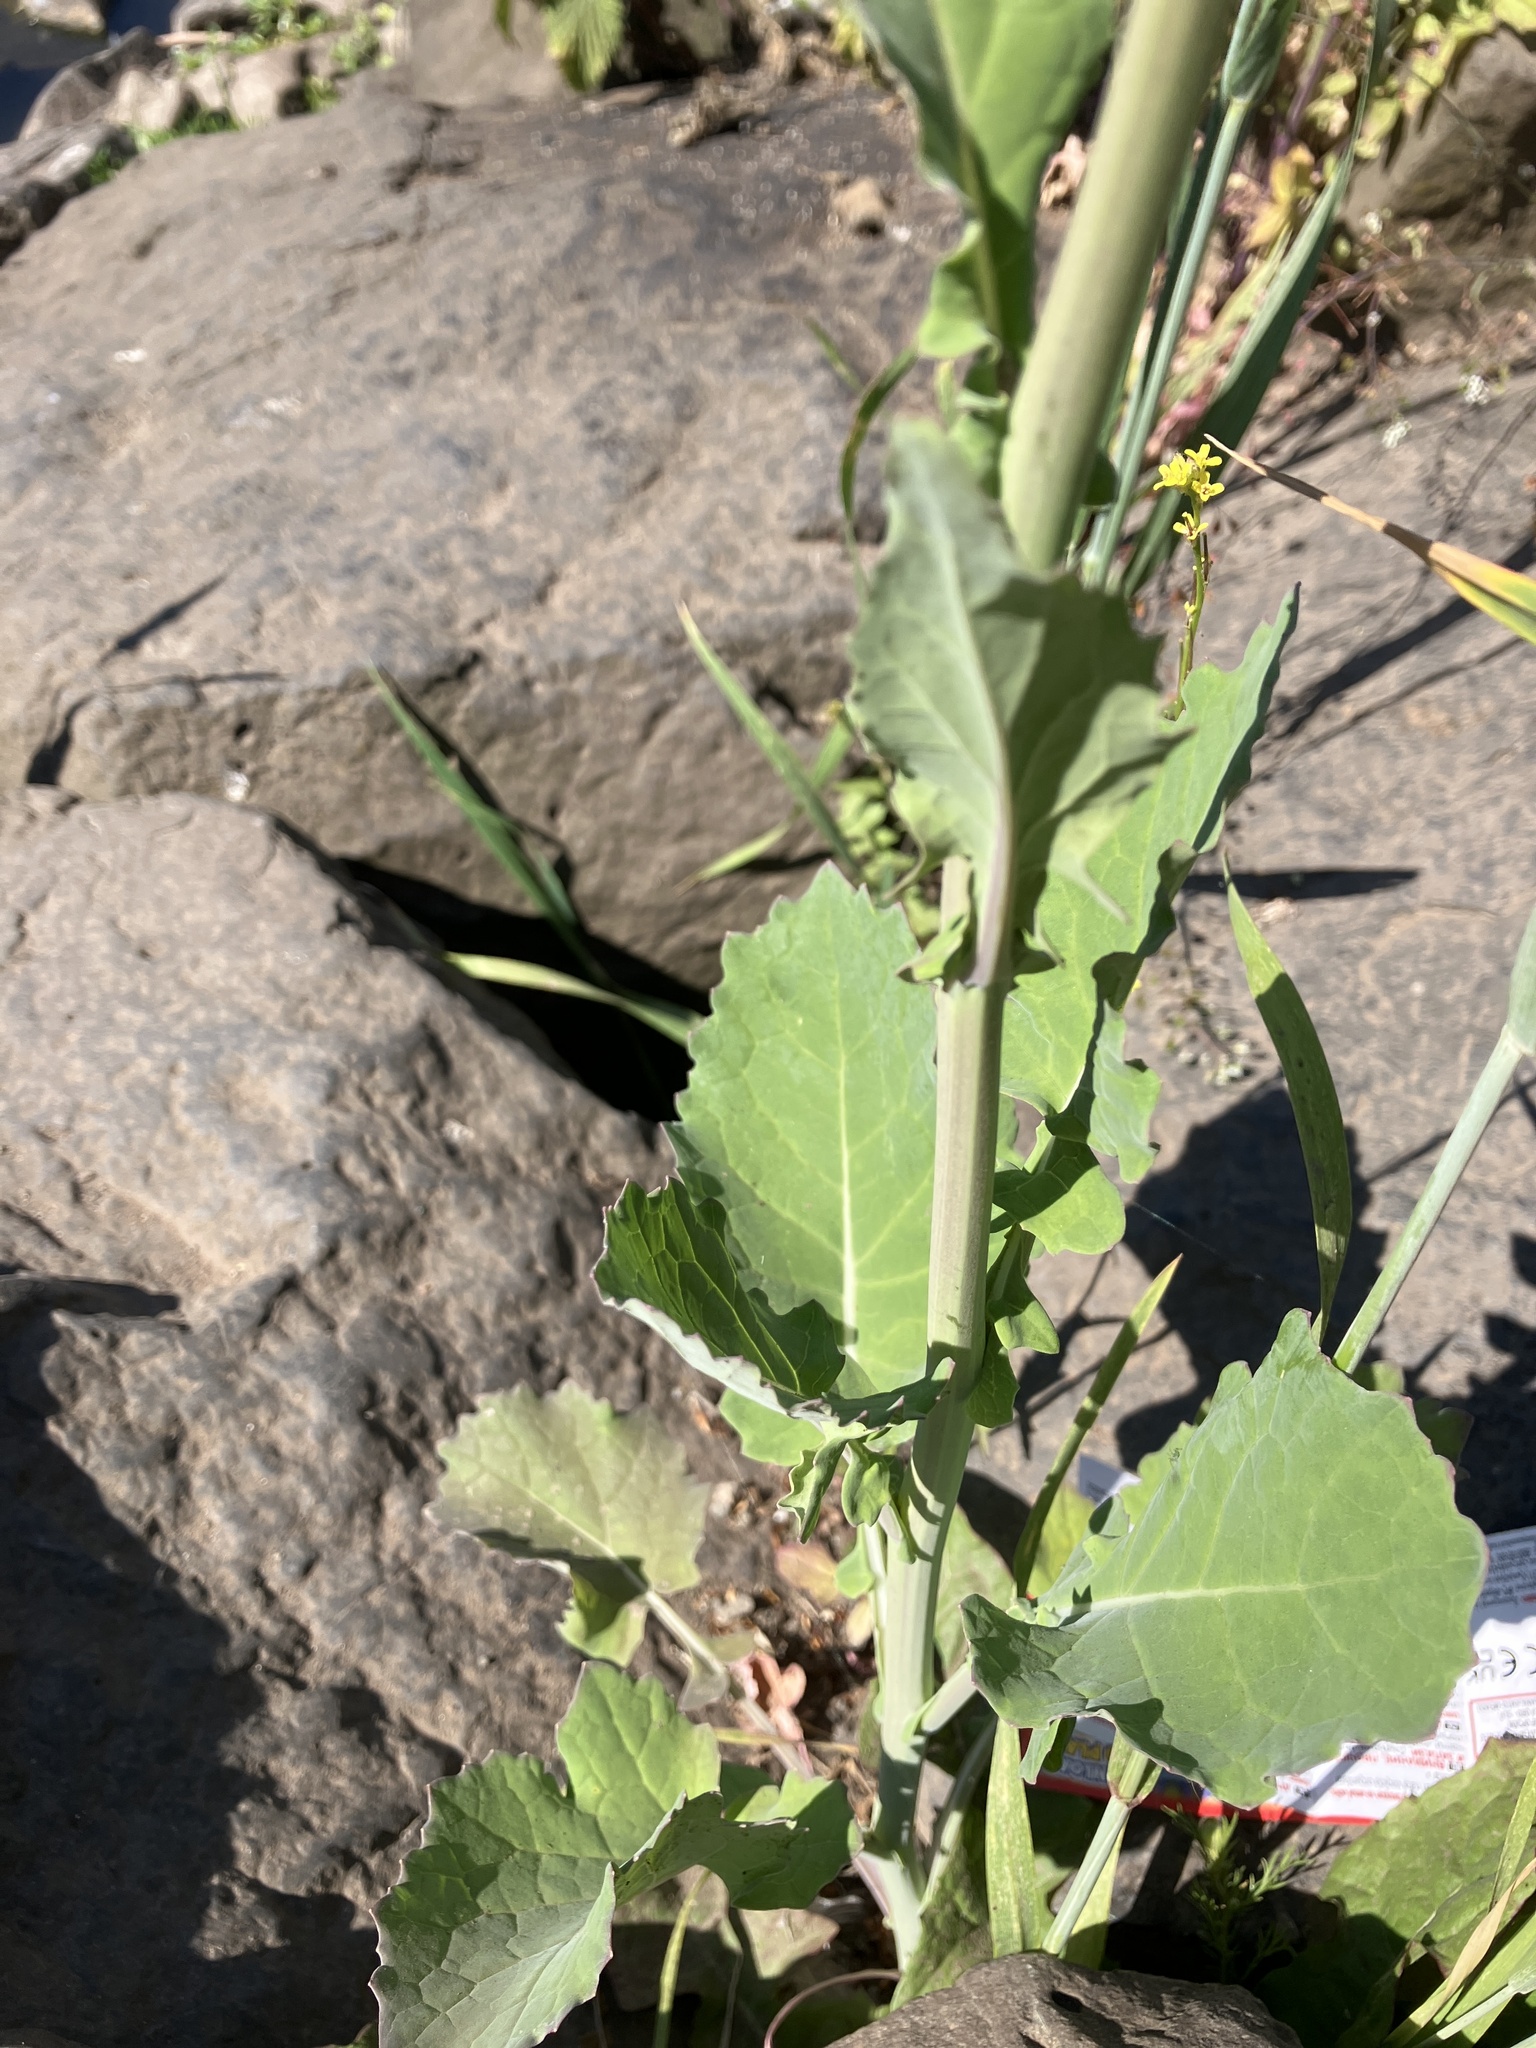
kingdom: Plantae
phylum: Tracheophyta
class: Magnoliopsida
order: Brassicales
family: Brassicaceae
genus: Brassica
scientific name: Brassica napus
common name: Rape
